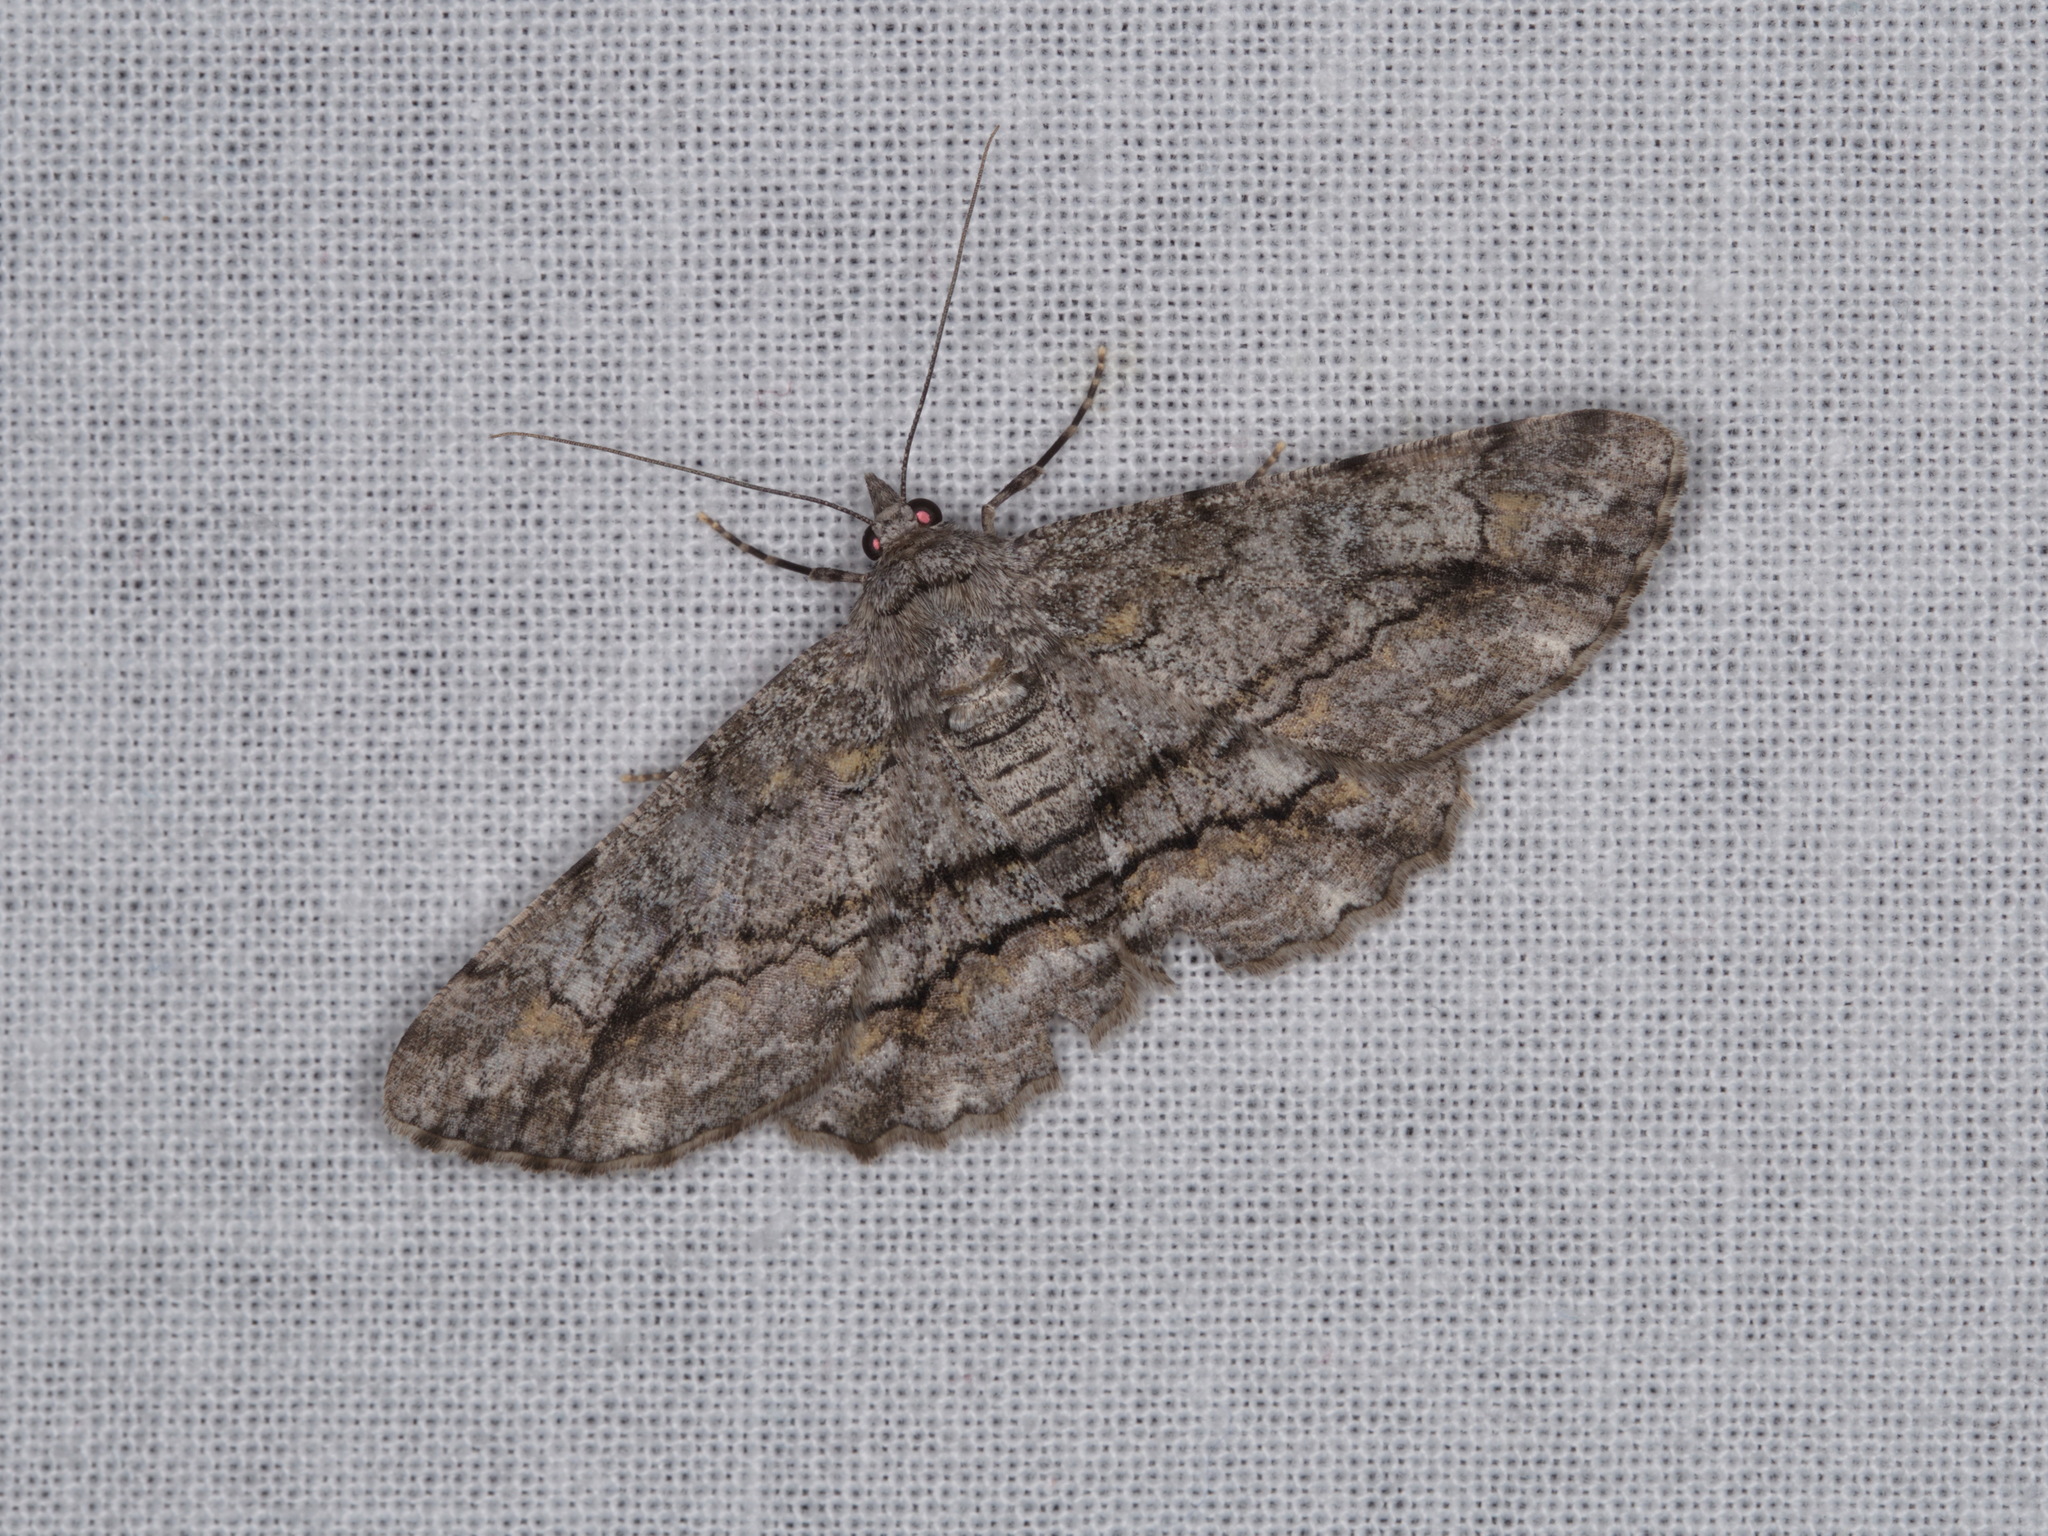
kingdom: Animalia
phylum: Arthropoda
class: Insecta
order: Lepidoptera
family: Geometridae
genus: Cleora
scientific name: Cleora injectaria
